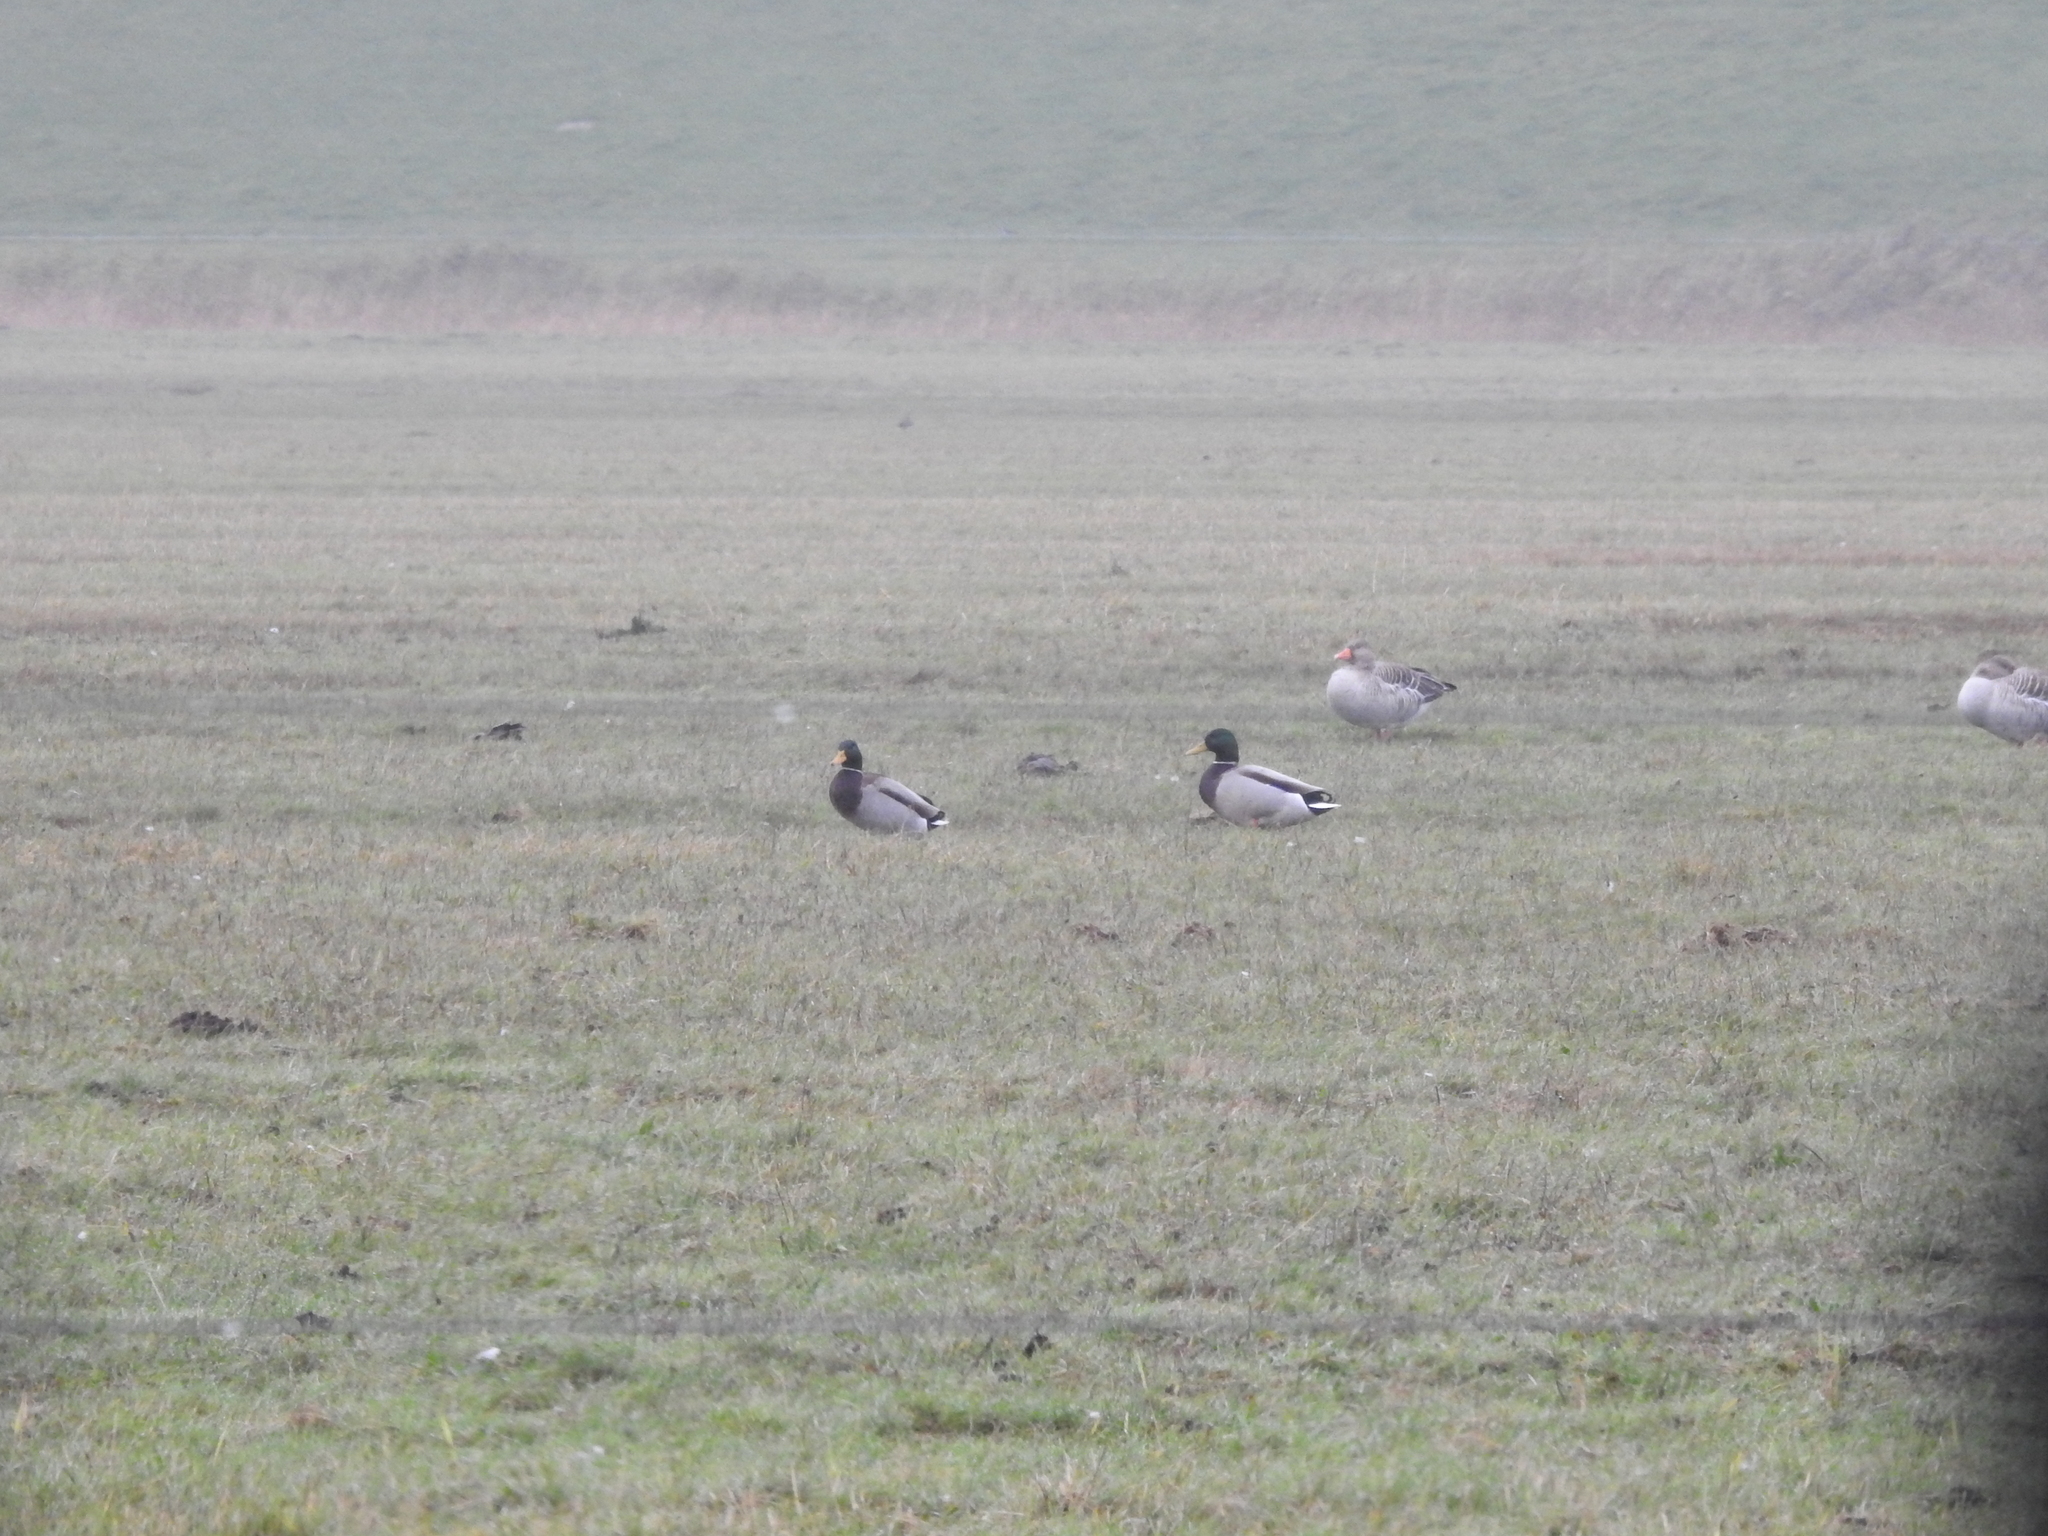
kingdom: Animalia
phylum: Chordata
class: Aves
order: Anseriformes
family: Anatidae
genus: Anas
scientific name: Anas platyrhynchos
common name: Mallard
